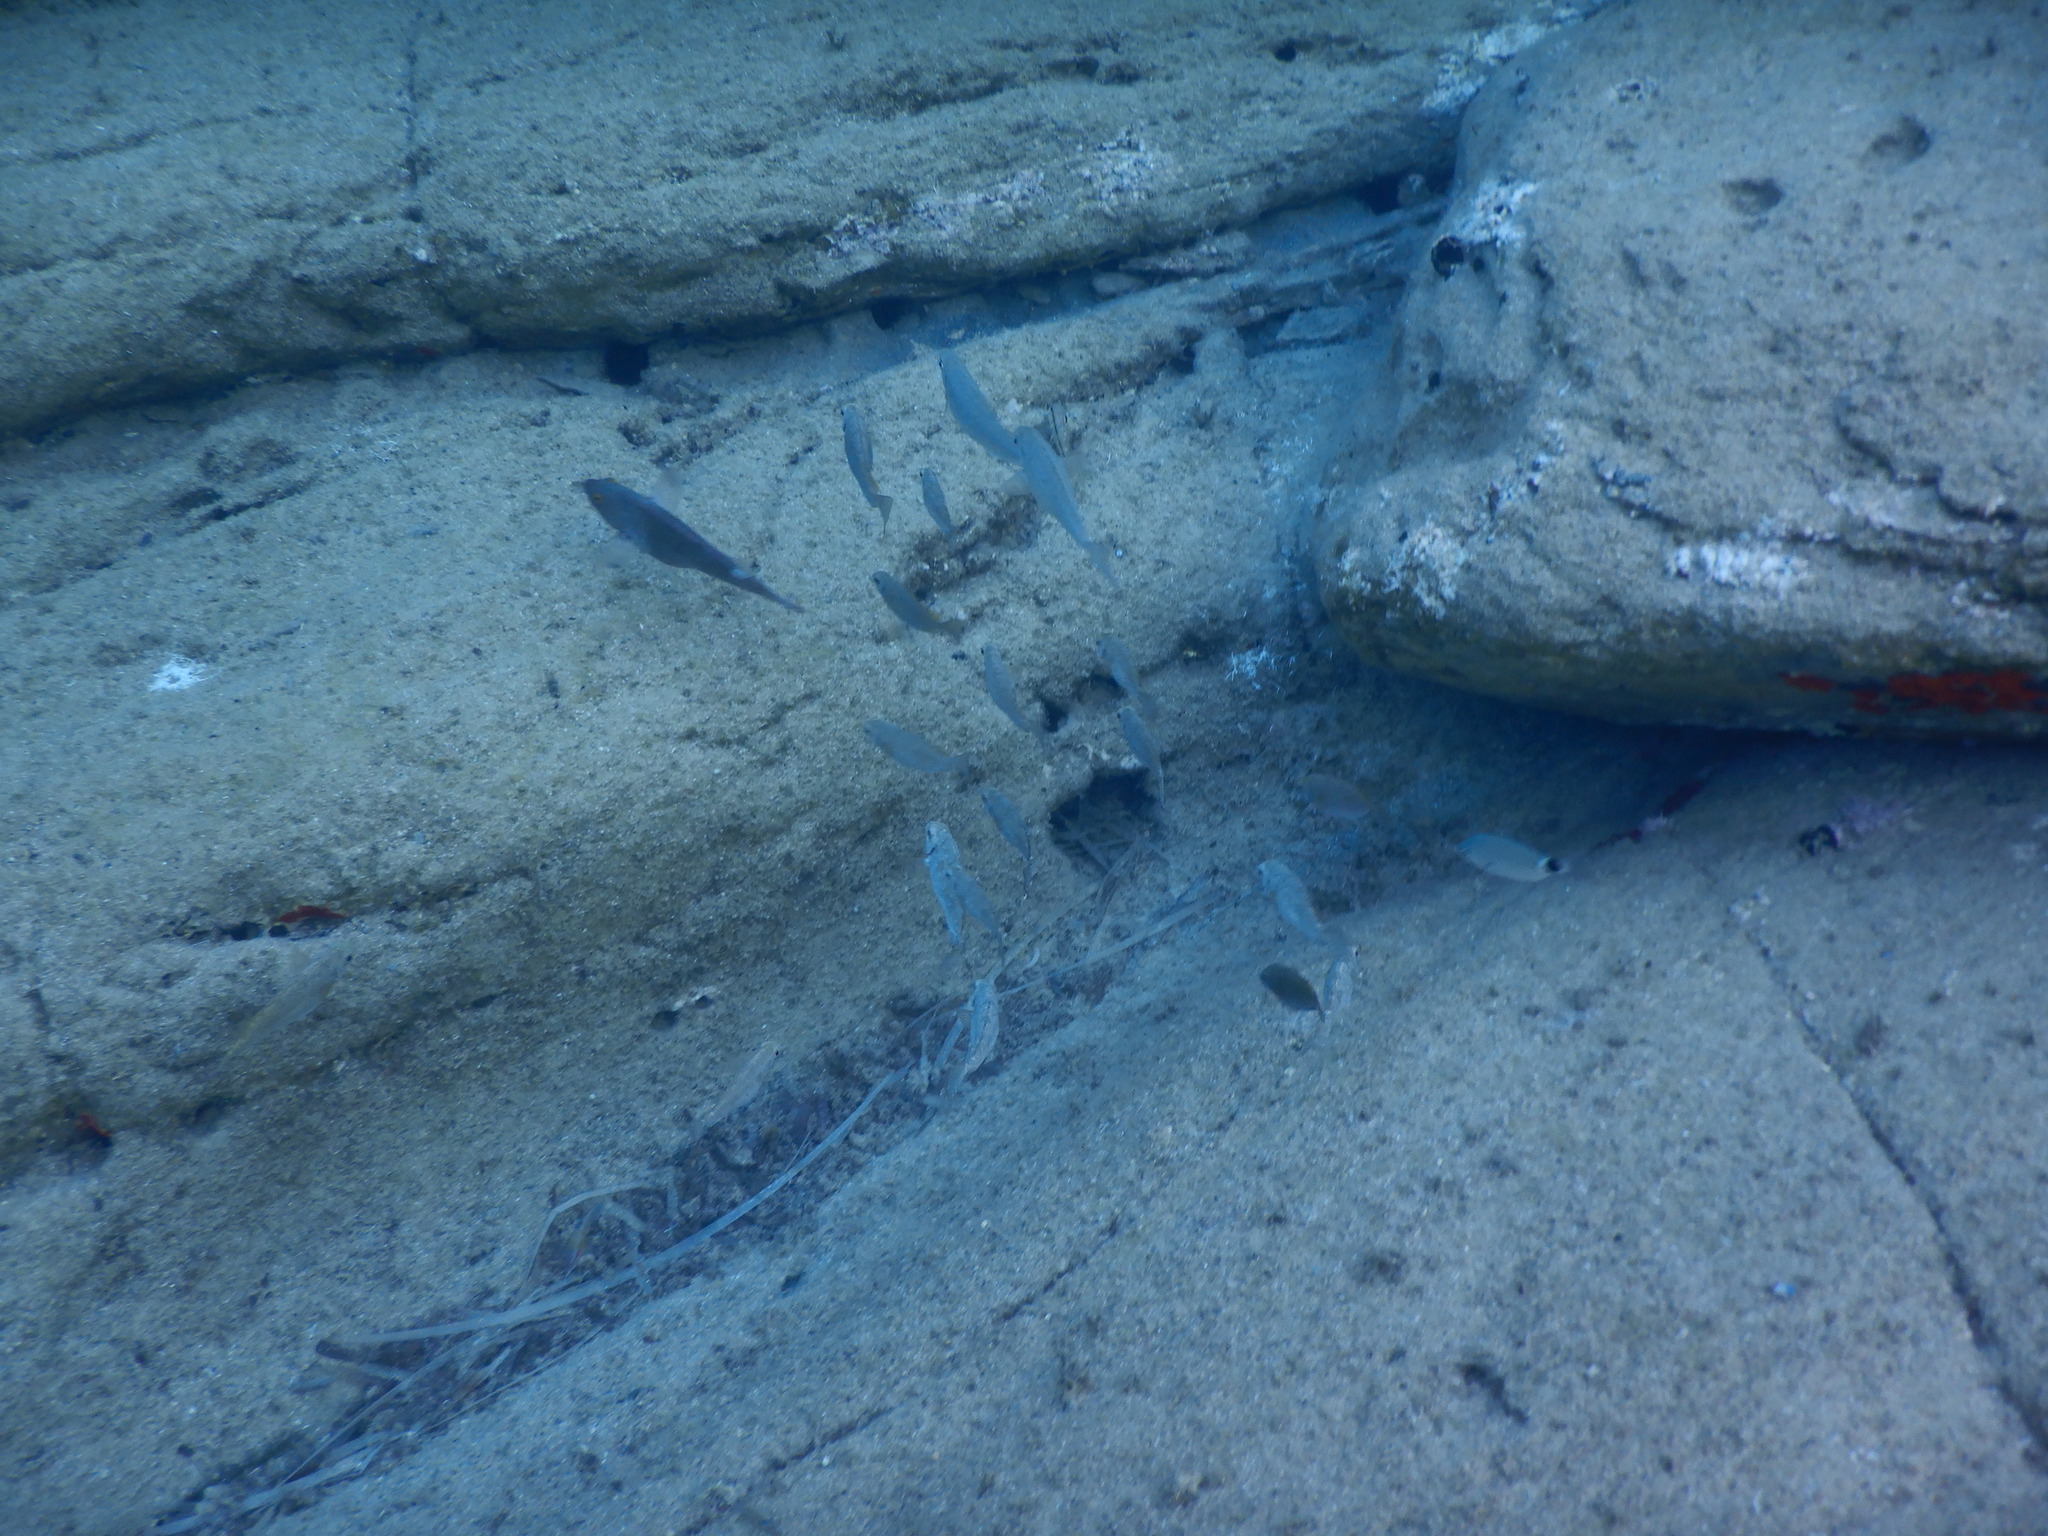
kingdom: Animalia
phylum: Chordata
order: Perciformes
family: Siganidae
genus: Siganus
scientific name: Siganus
